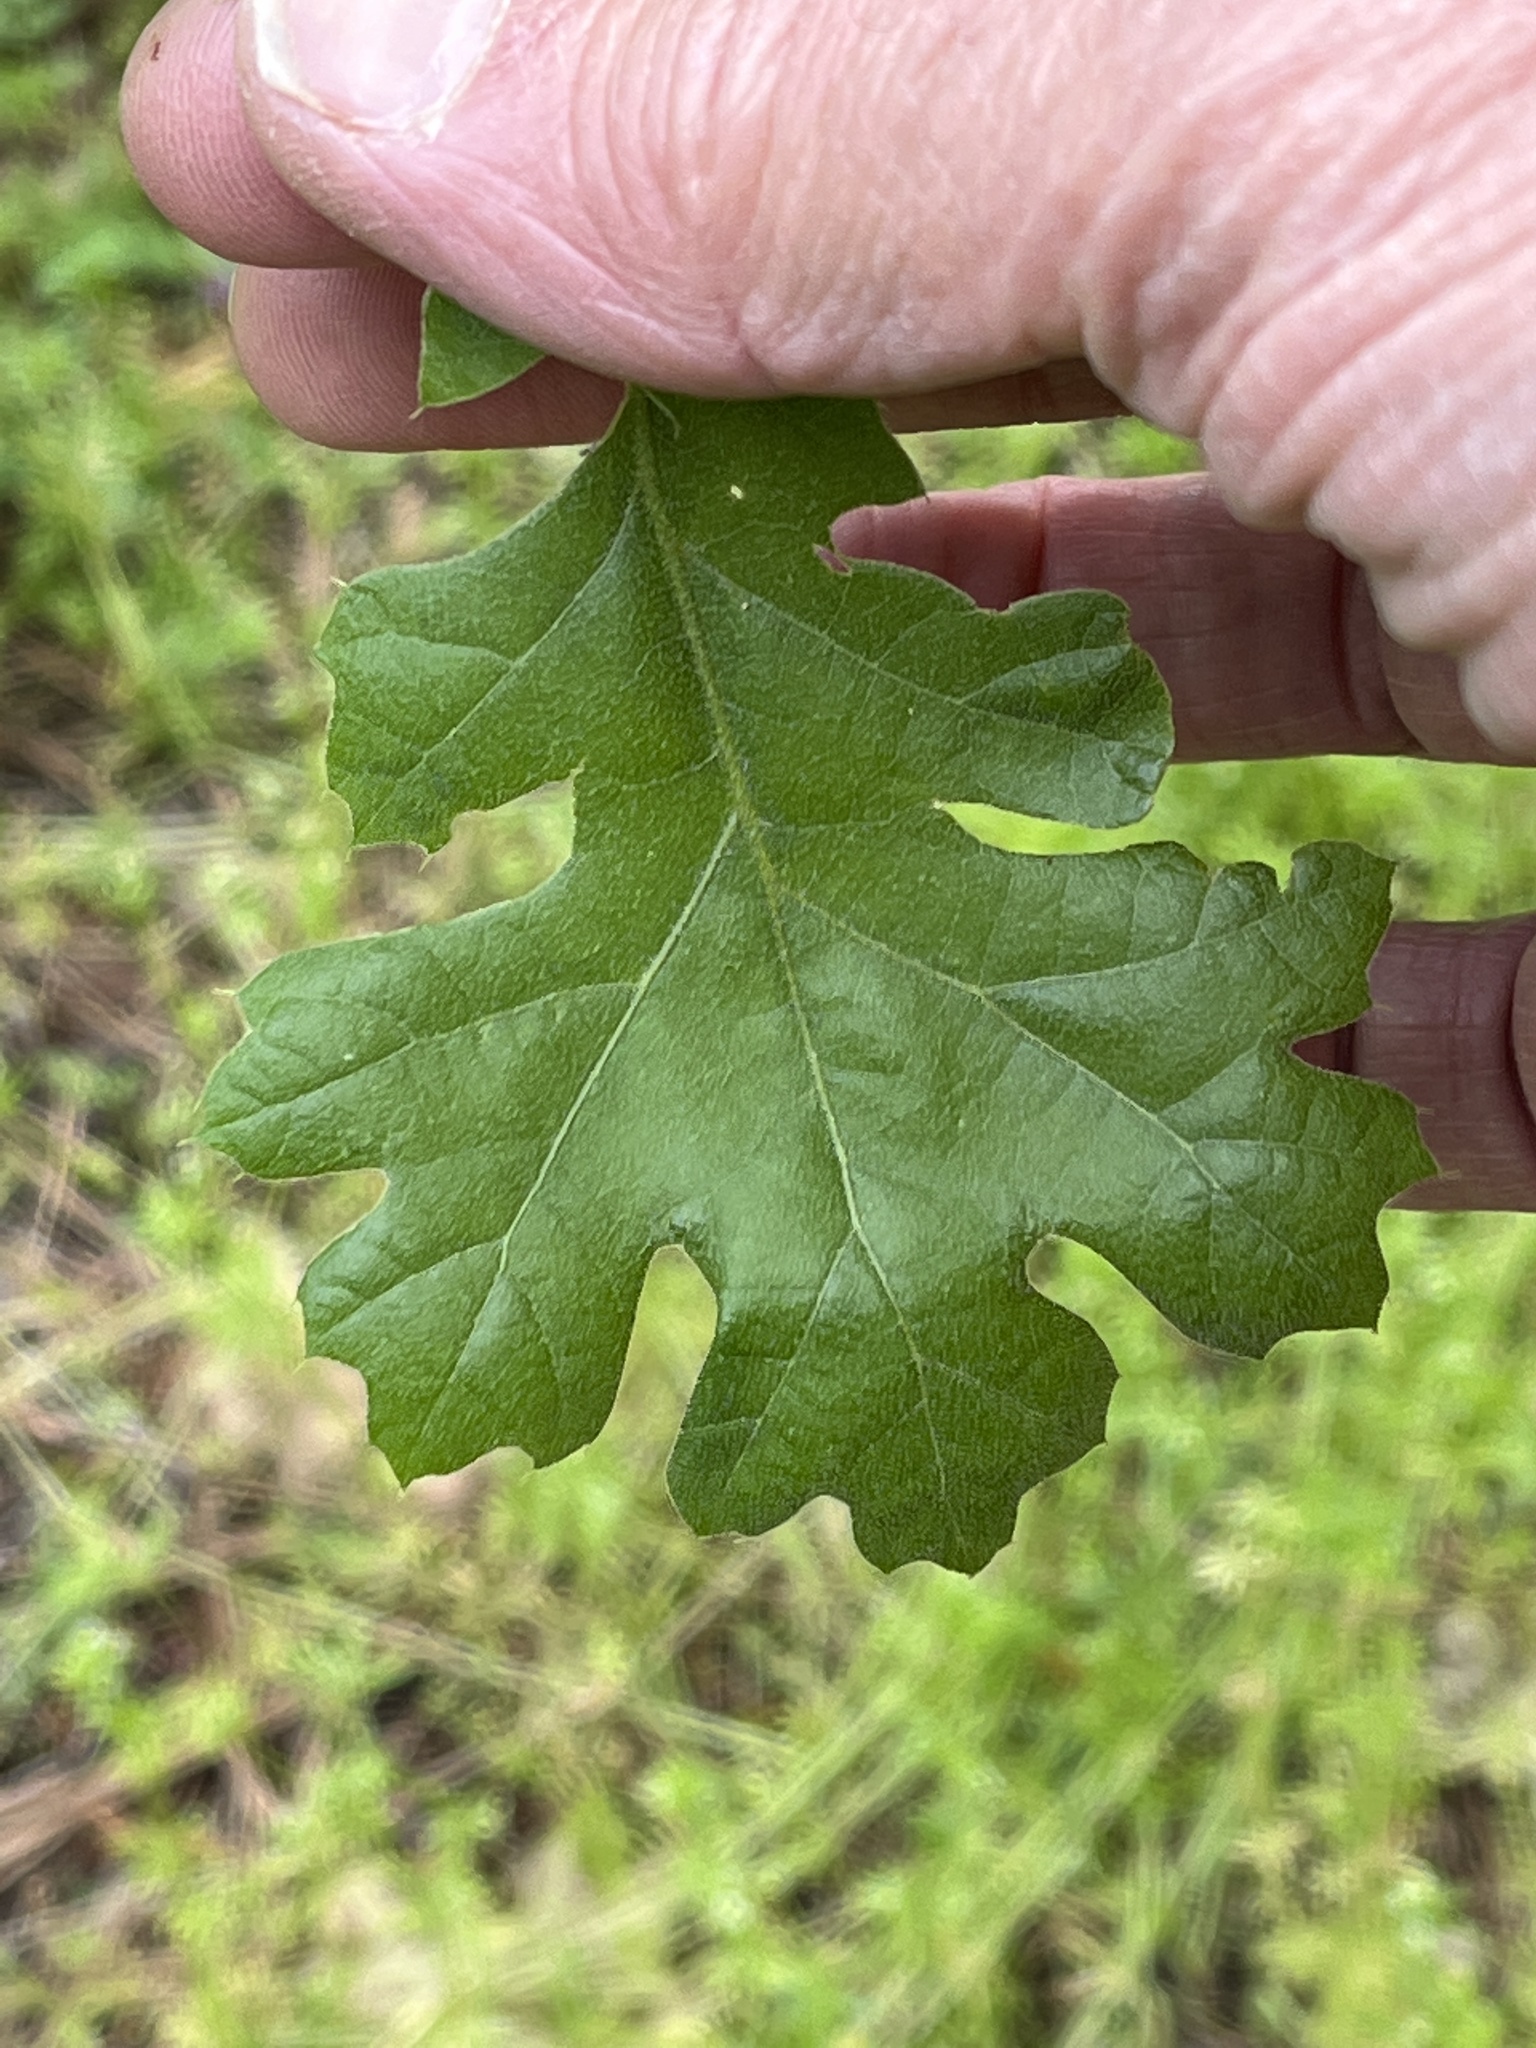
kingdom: Plantae
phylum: Tracheophyta
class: Magnoliopsida
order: Fagales
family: Fagaceae
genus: Quercus
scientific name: Quercus kelloggii
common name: California black oak
